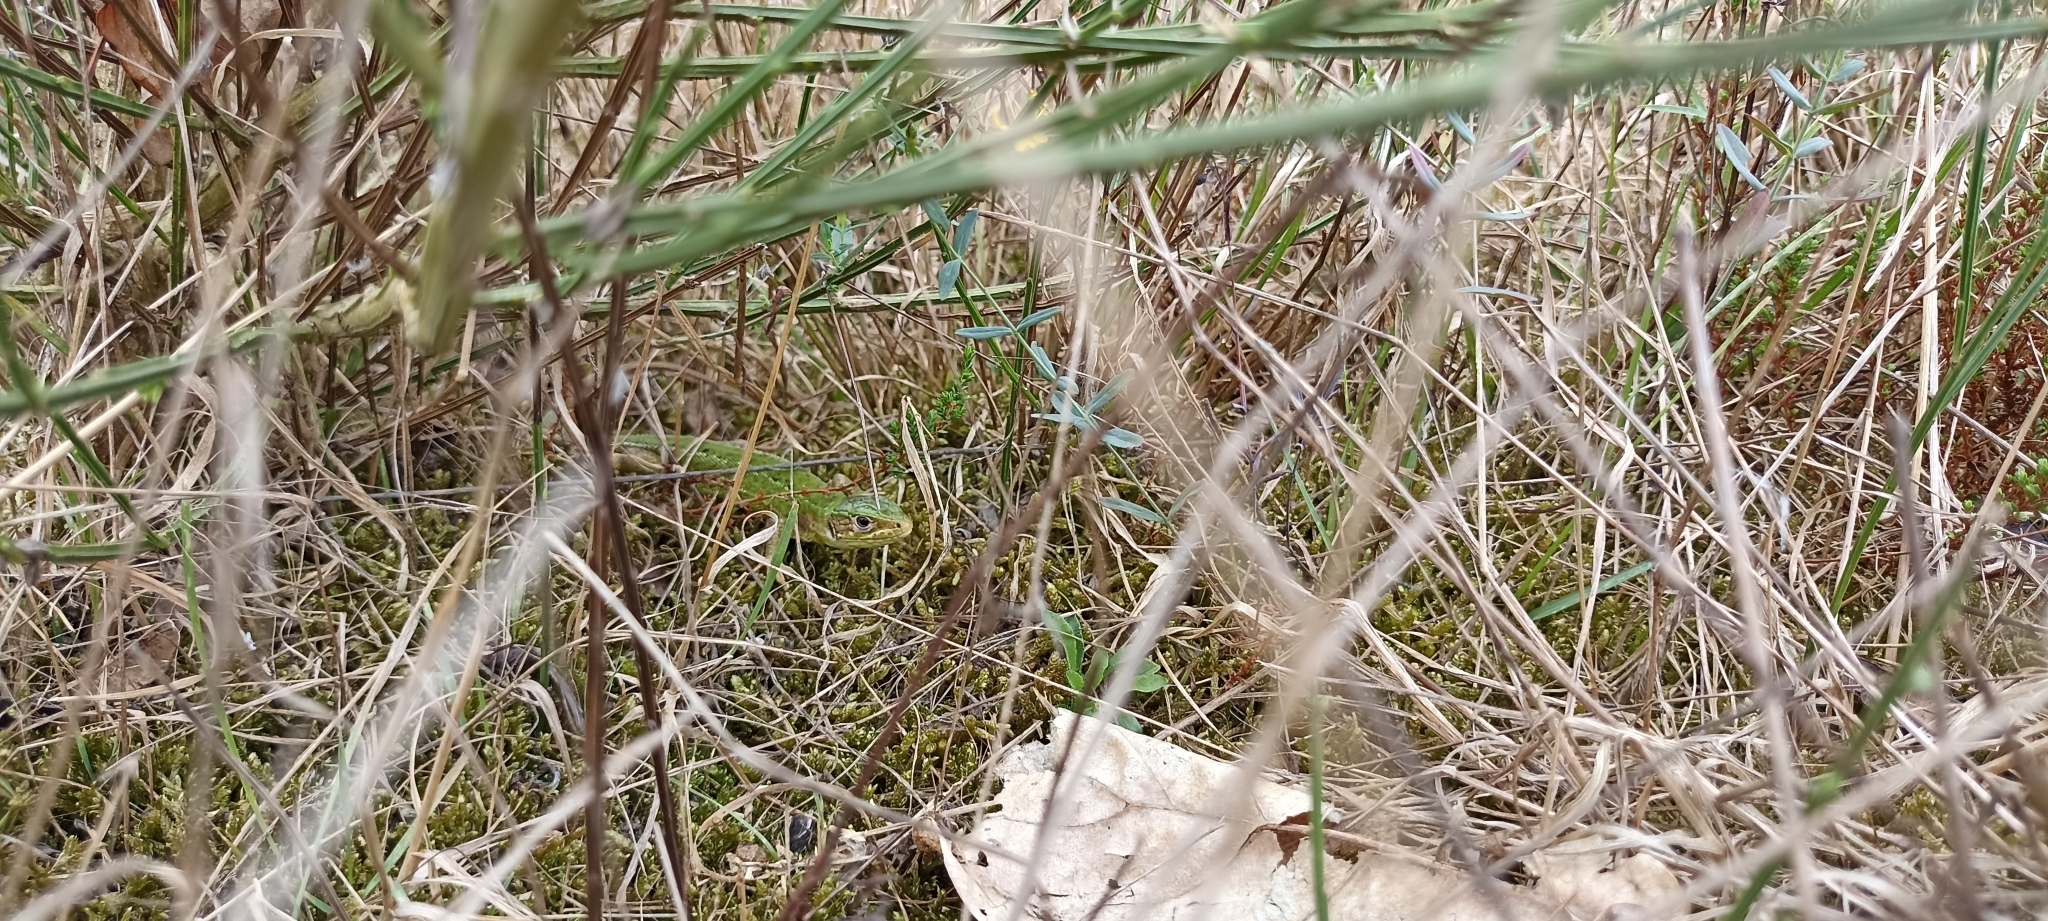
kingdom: Animalia
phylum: Chordata
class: Squamata
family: Lacertidae
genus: Lacerta
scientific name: Lacerta bilineata
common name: Western green lizard
